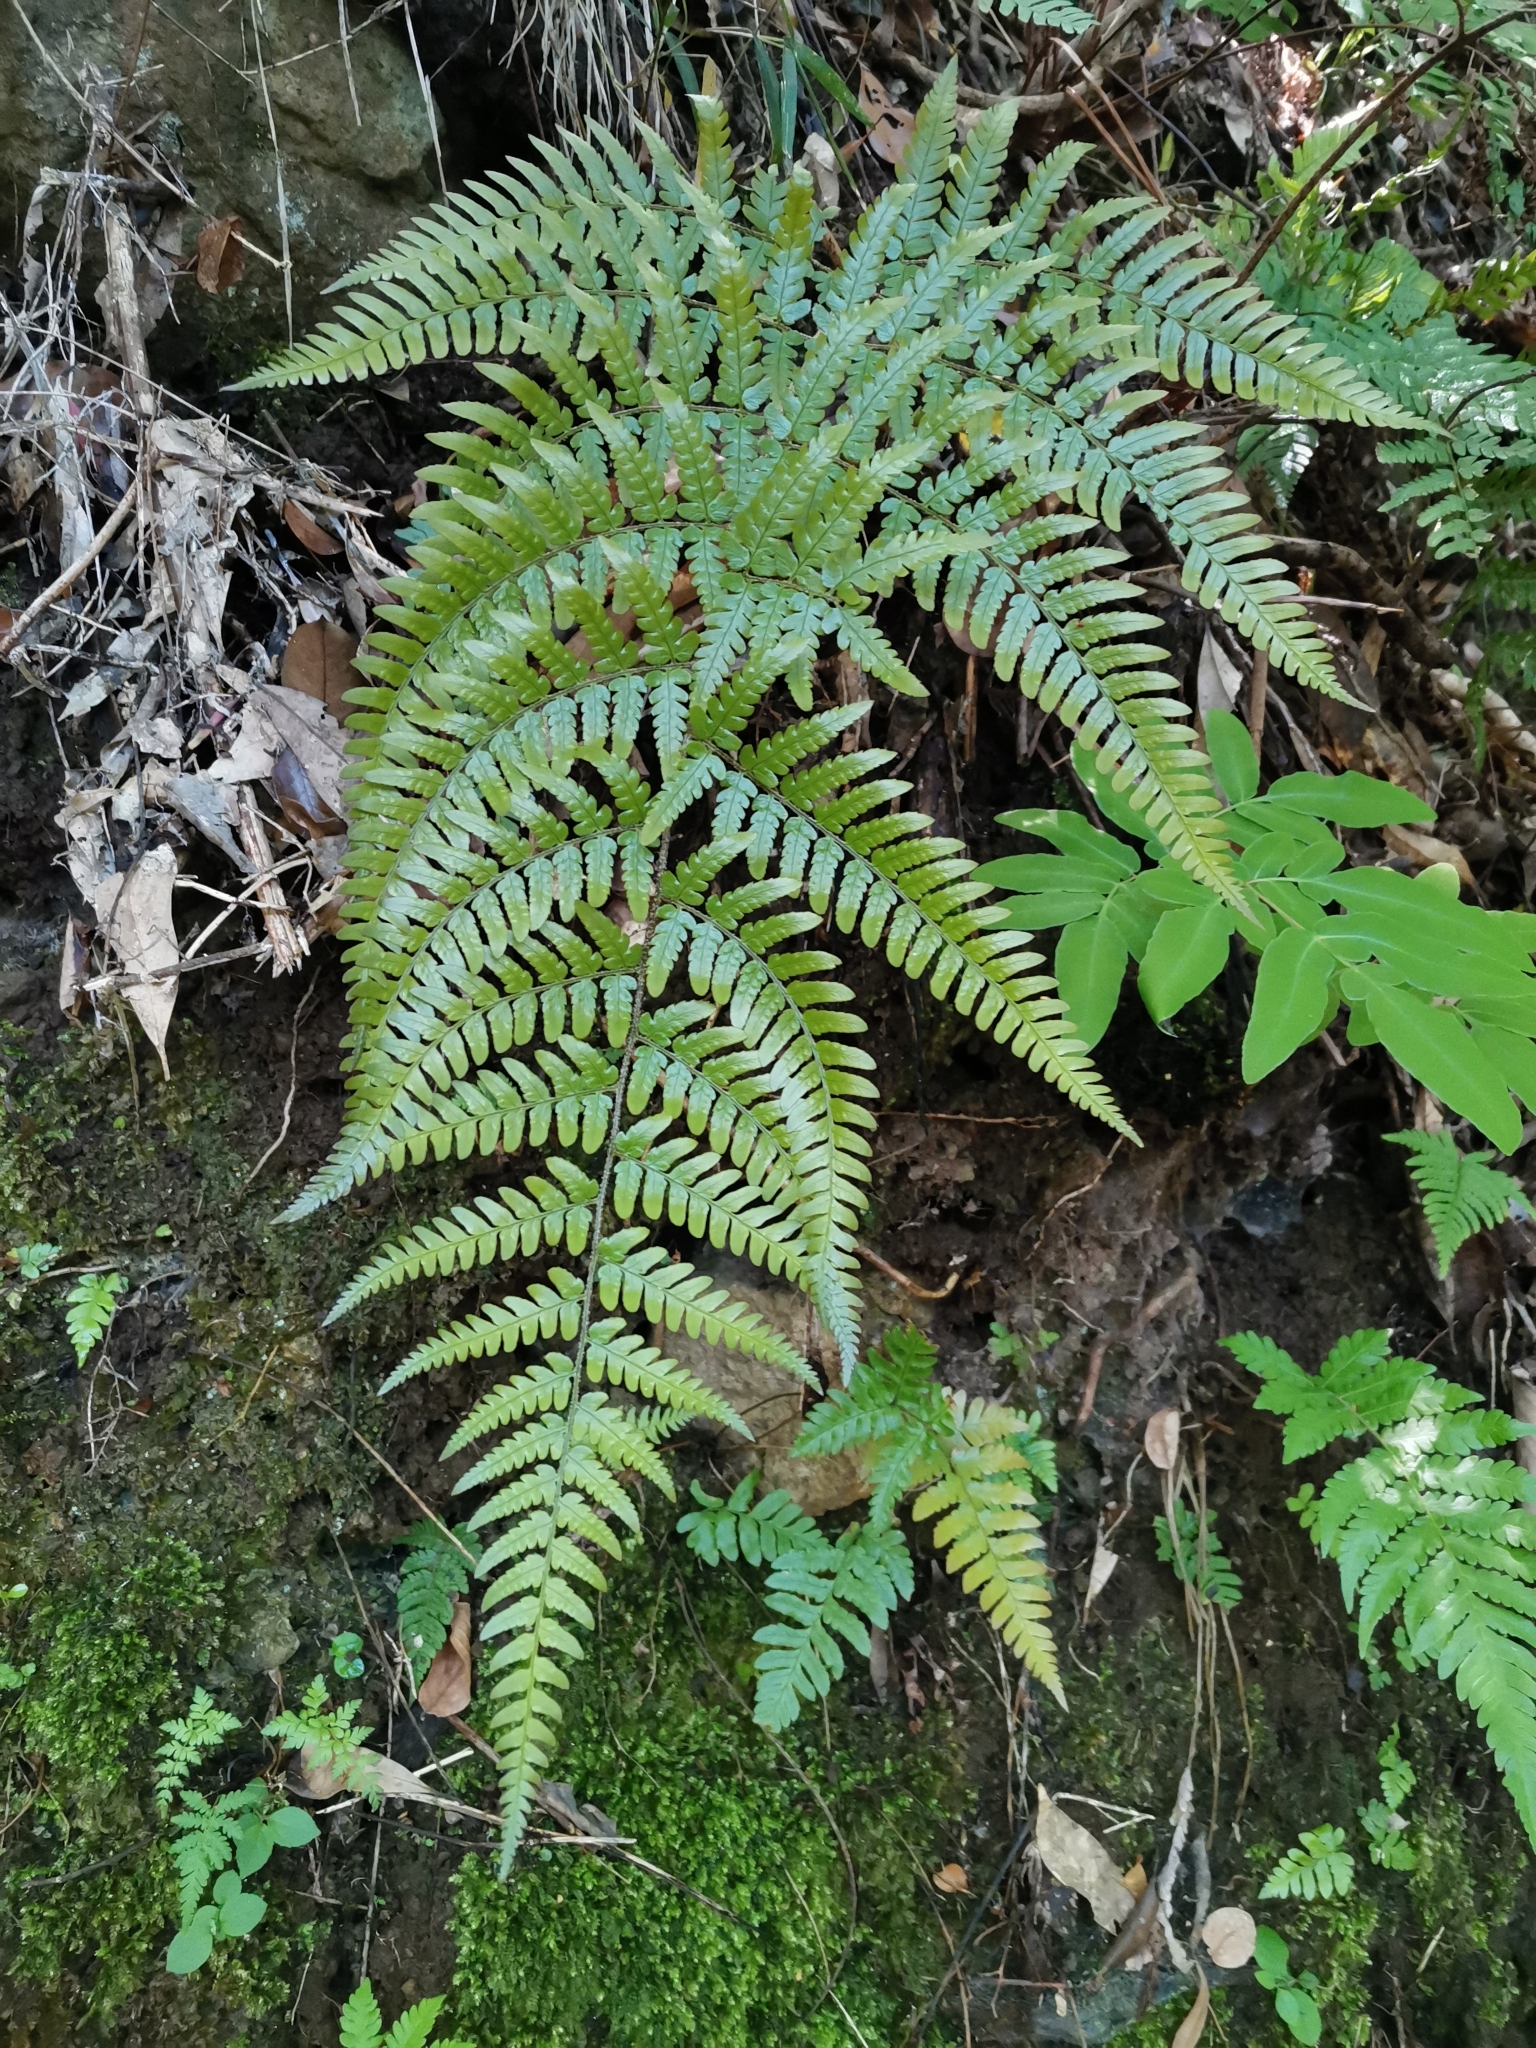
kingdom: Plantae
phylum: Tracheophyta
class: Polypodiopsida
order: Polypodiales
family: Dryopteridaceae
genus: Dryopteris
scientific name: Dryopteris nipponensis
